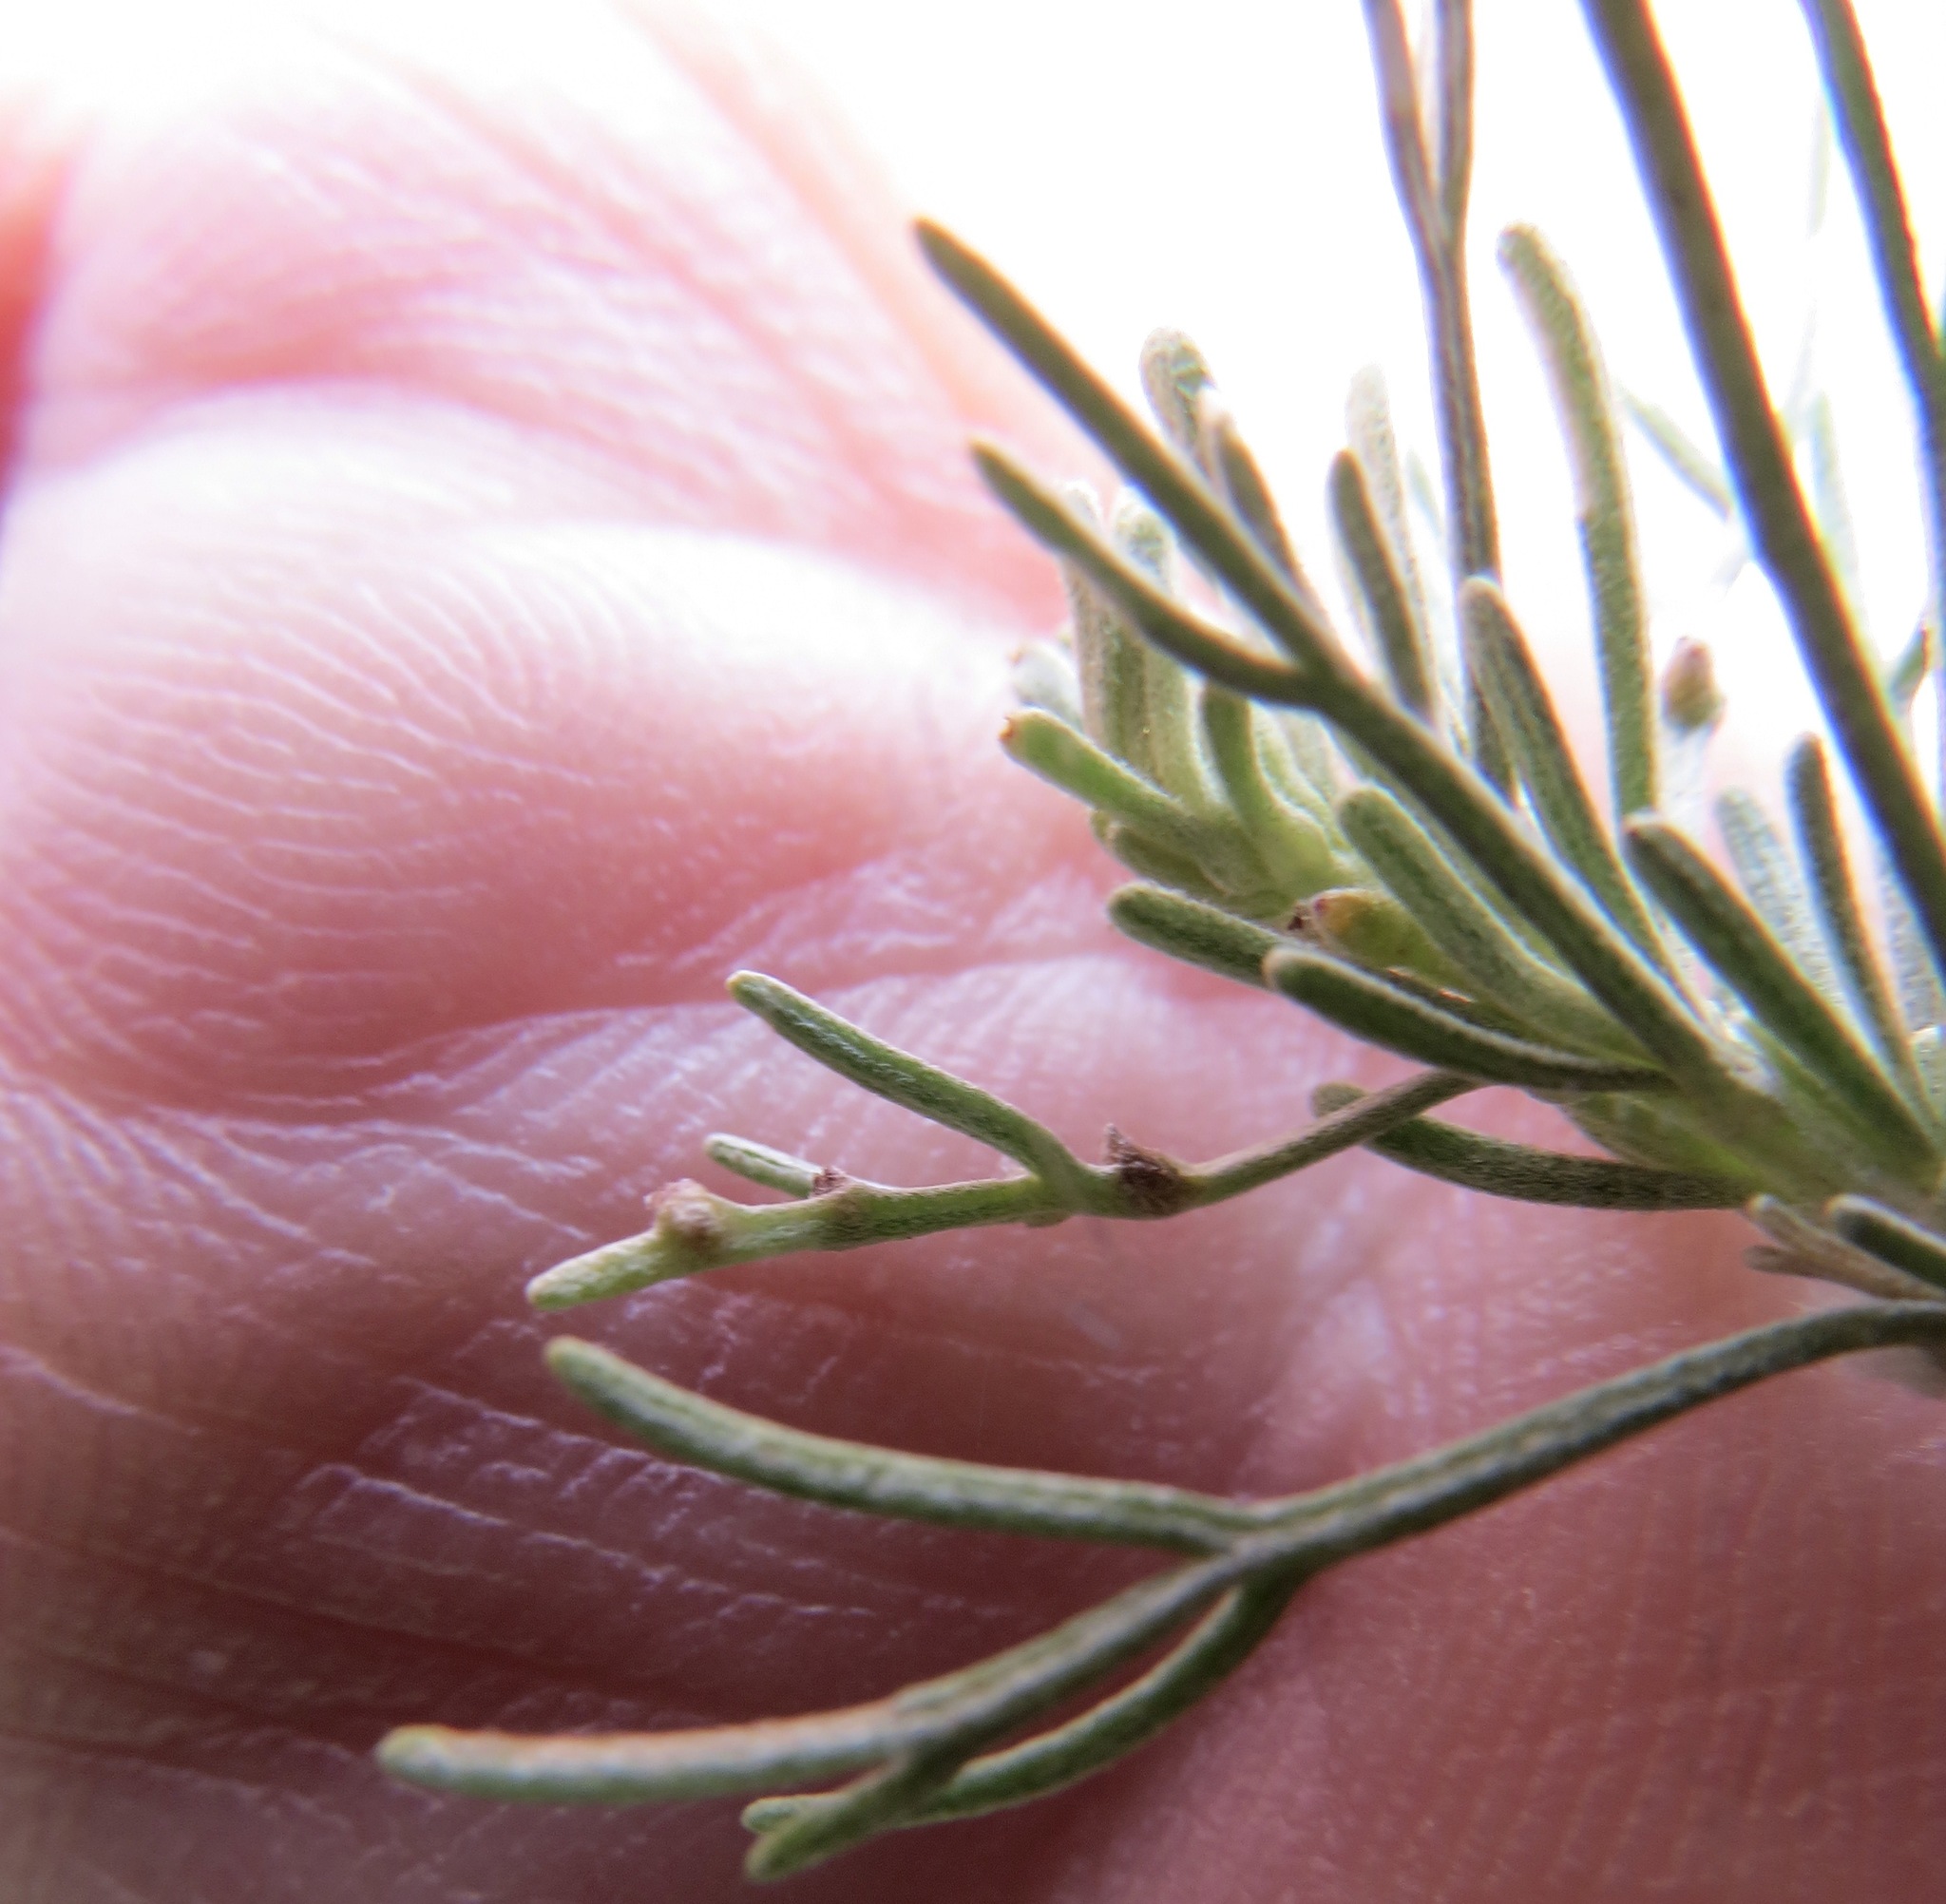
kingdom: Animalia
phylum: Arthropoda
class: Insecta
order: Diptera
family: Cecidomyiidae
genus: Rhopalomyia
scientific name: Rhopalomyia clinata
